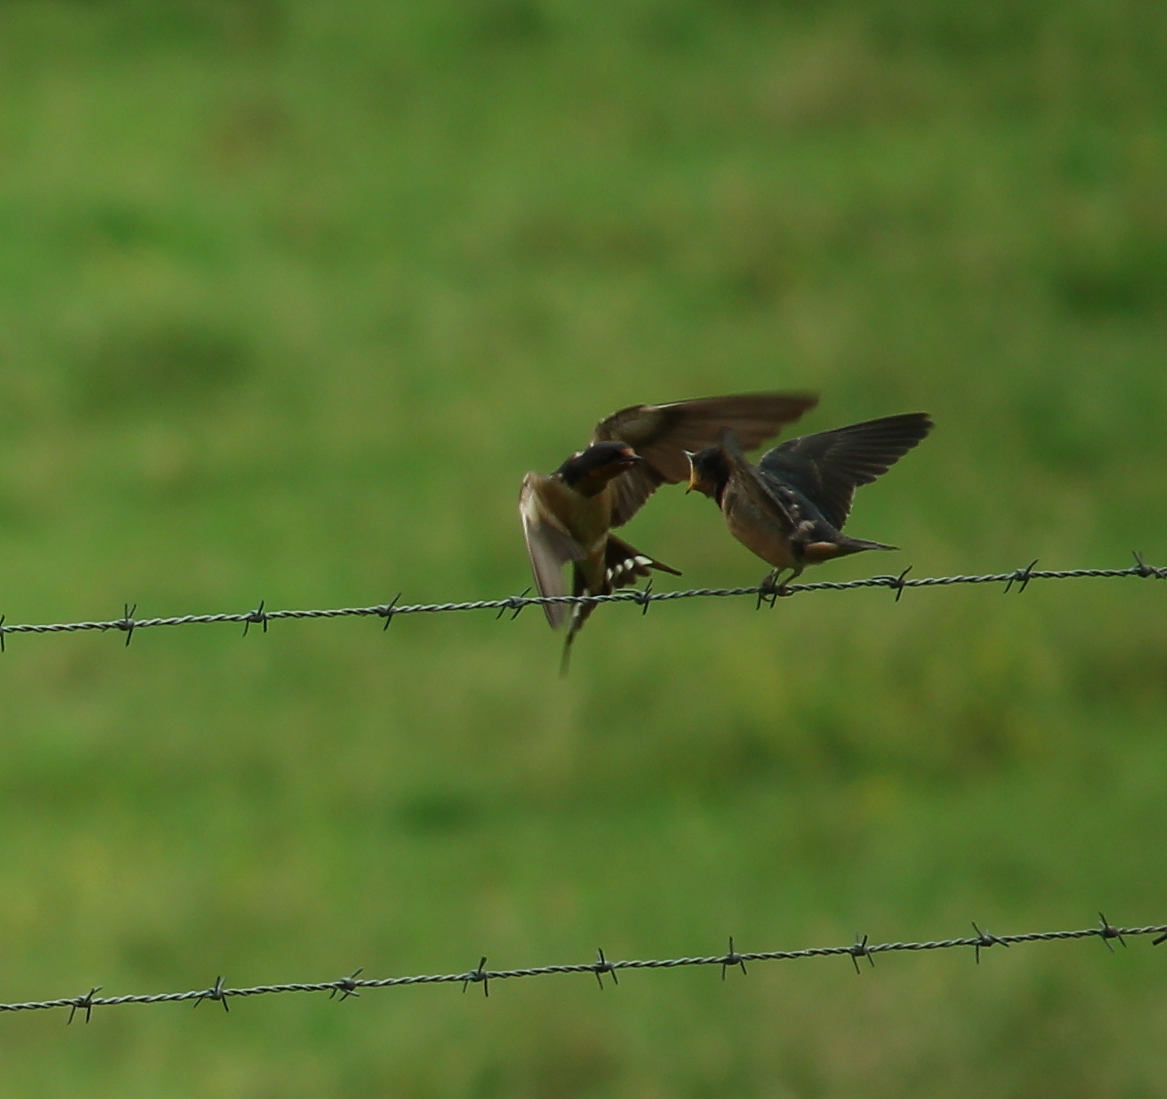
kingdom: Animalia
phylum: Chordata
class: Aves
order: Passeriformes
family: Hirundinidae
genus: Hirundo
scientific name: Hirundo rustica
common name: Barn swallow
